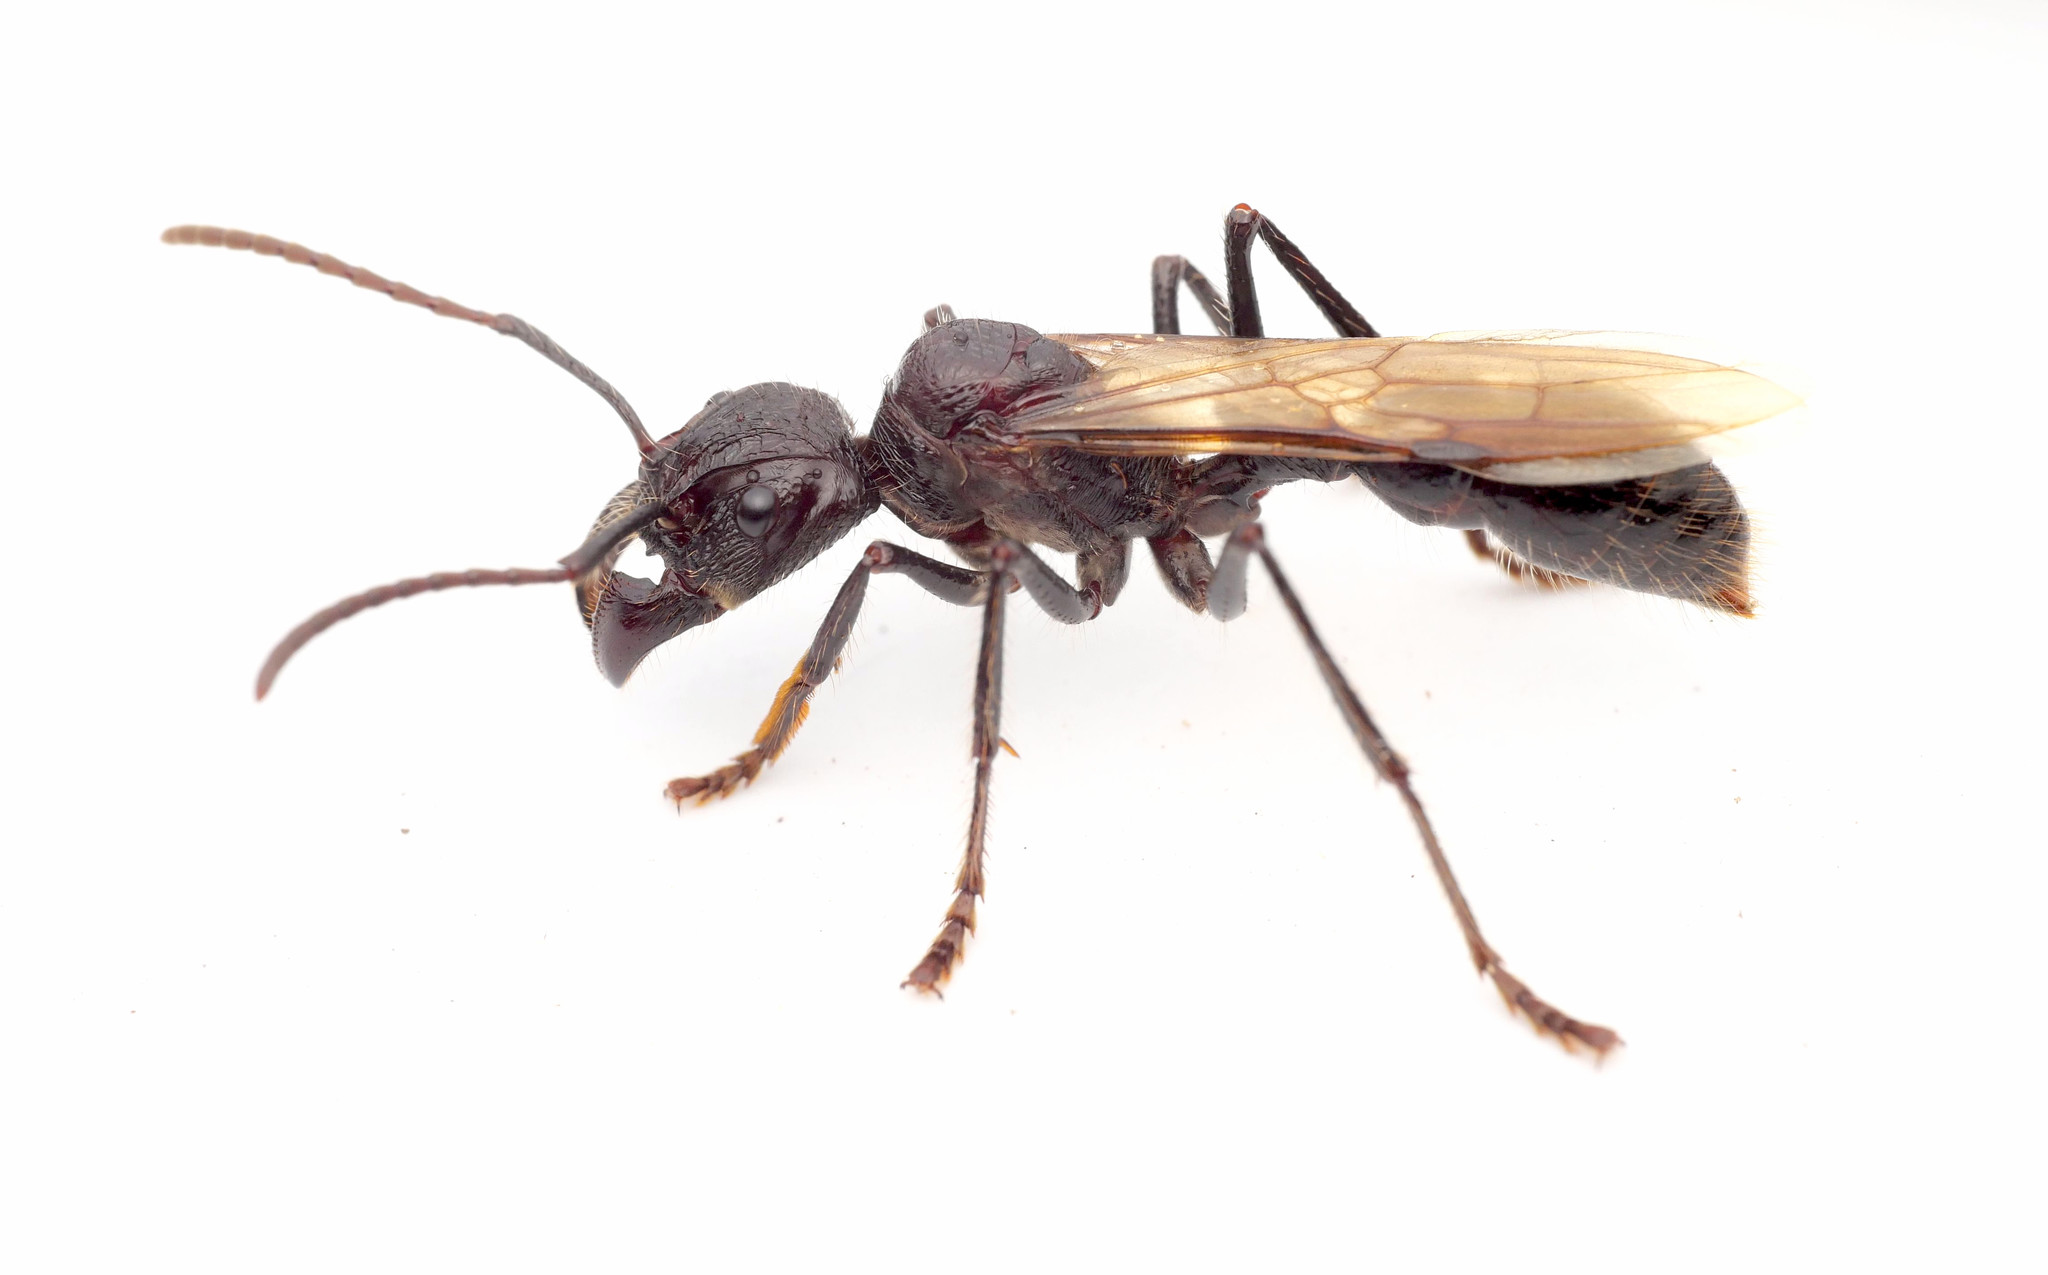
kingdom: Animalia
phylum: Arthropoda
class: Insecta
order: Hymenoptera
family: Formicidae
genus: Paraponera
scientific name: Paraponera clavata
